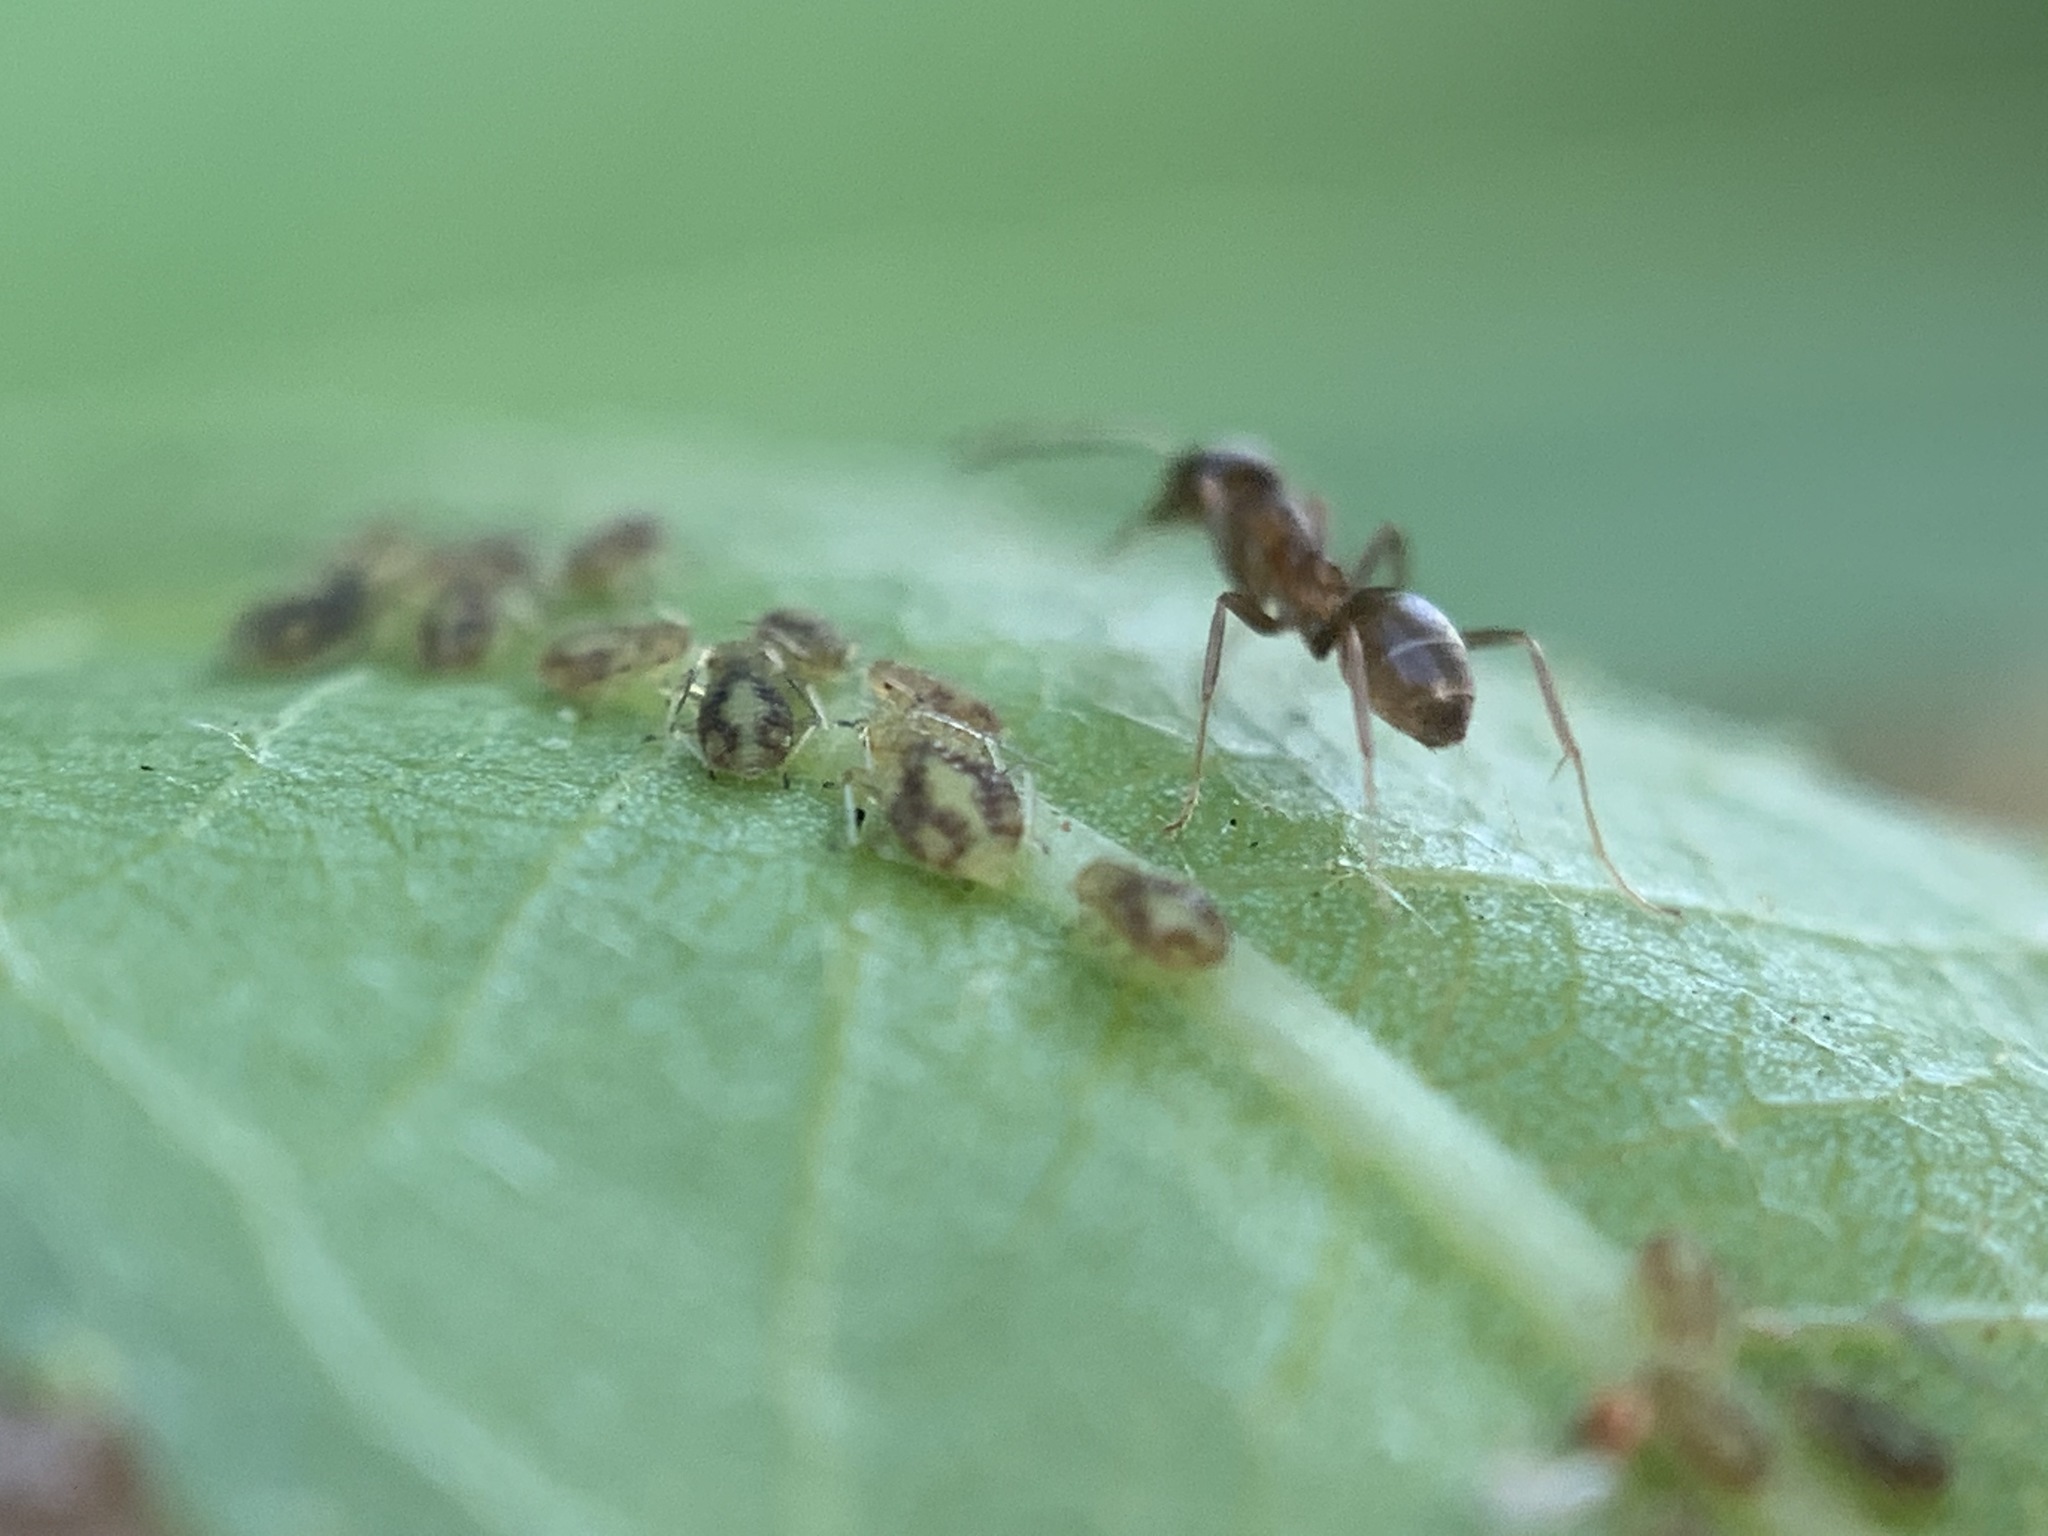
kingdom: Animalia
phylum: Arthropoda
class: Insecta
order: Hymenoptera
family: Formicidae
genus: Linepithema
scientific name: Linepithema humile
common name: Argentine ant
